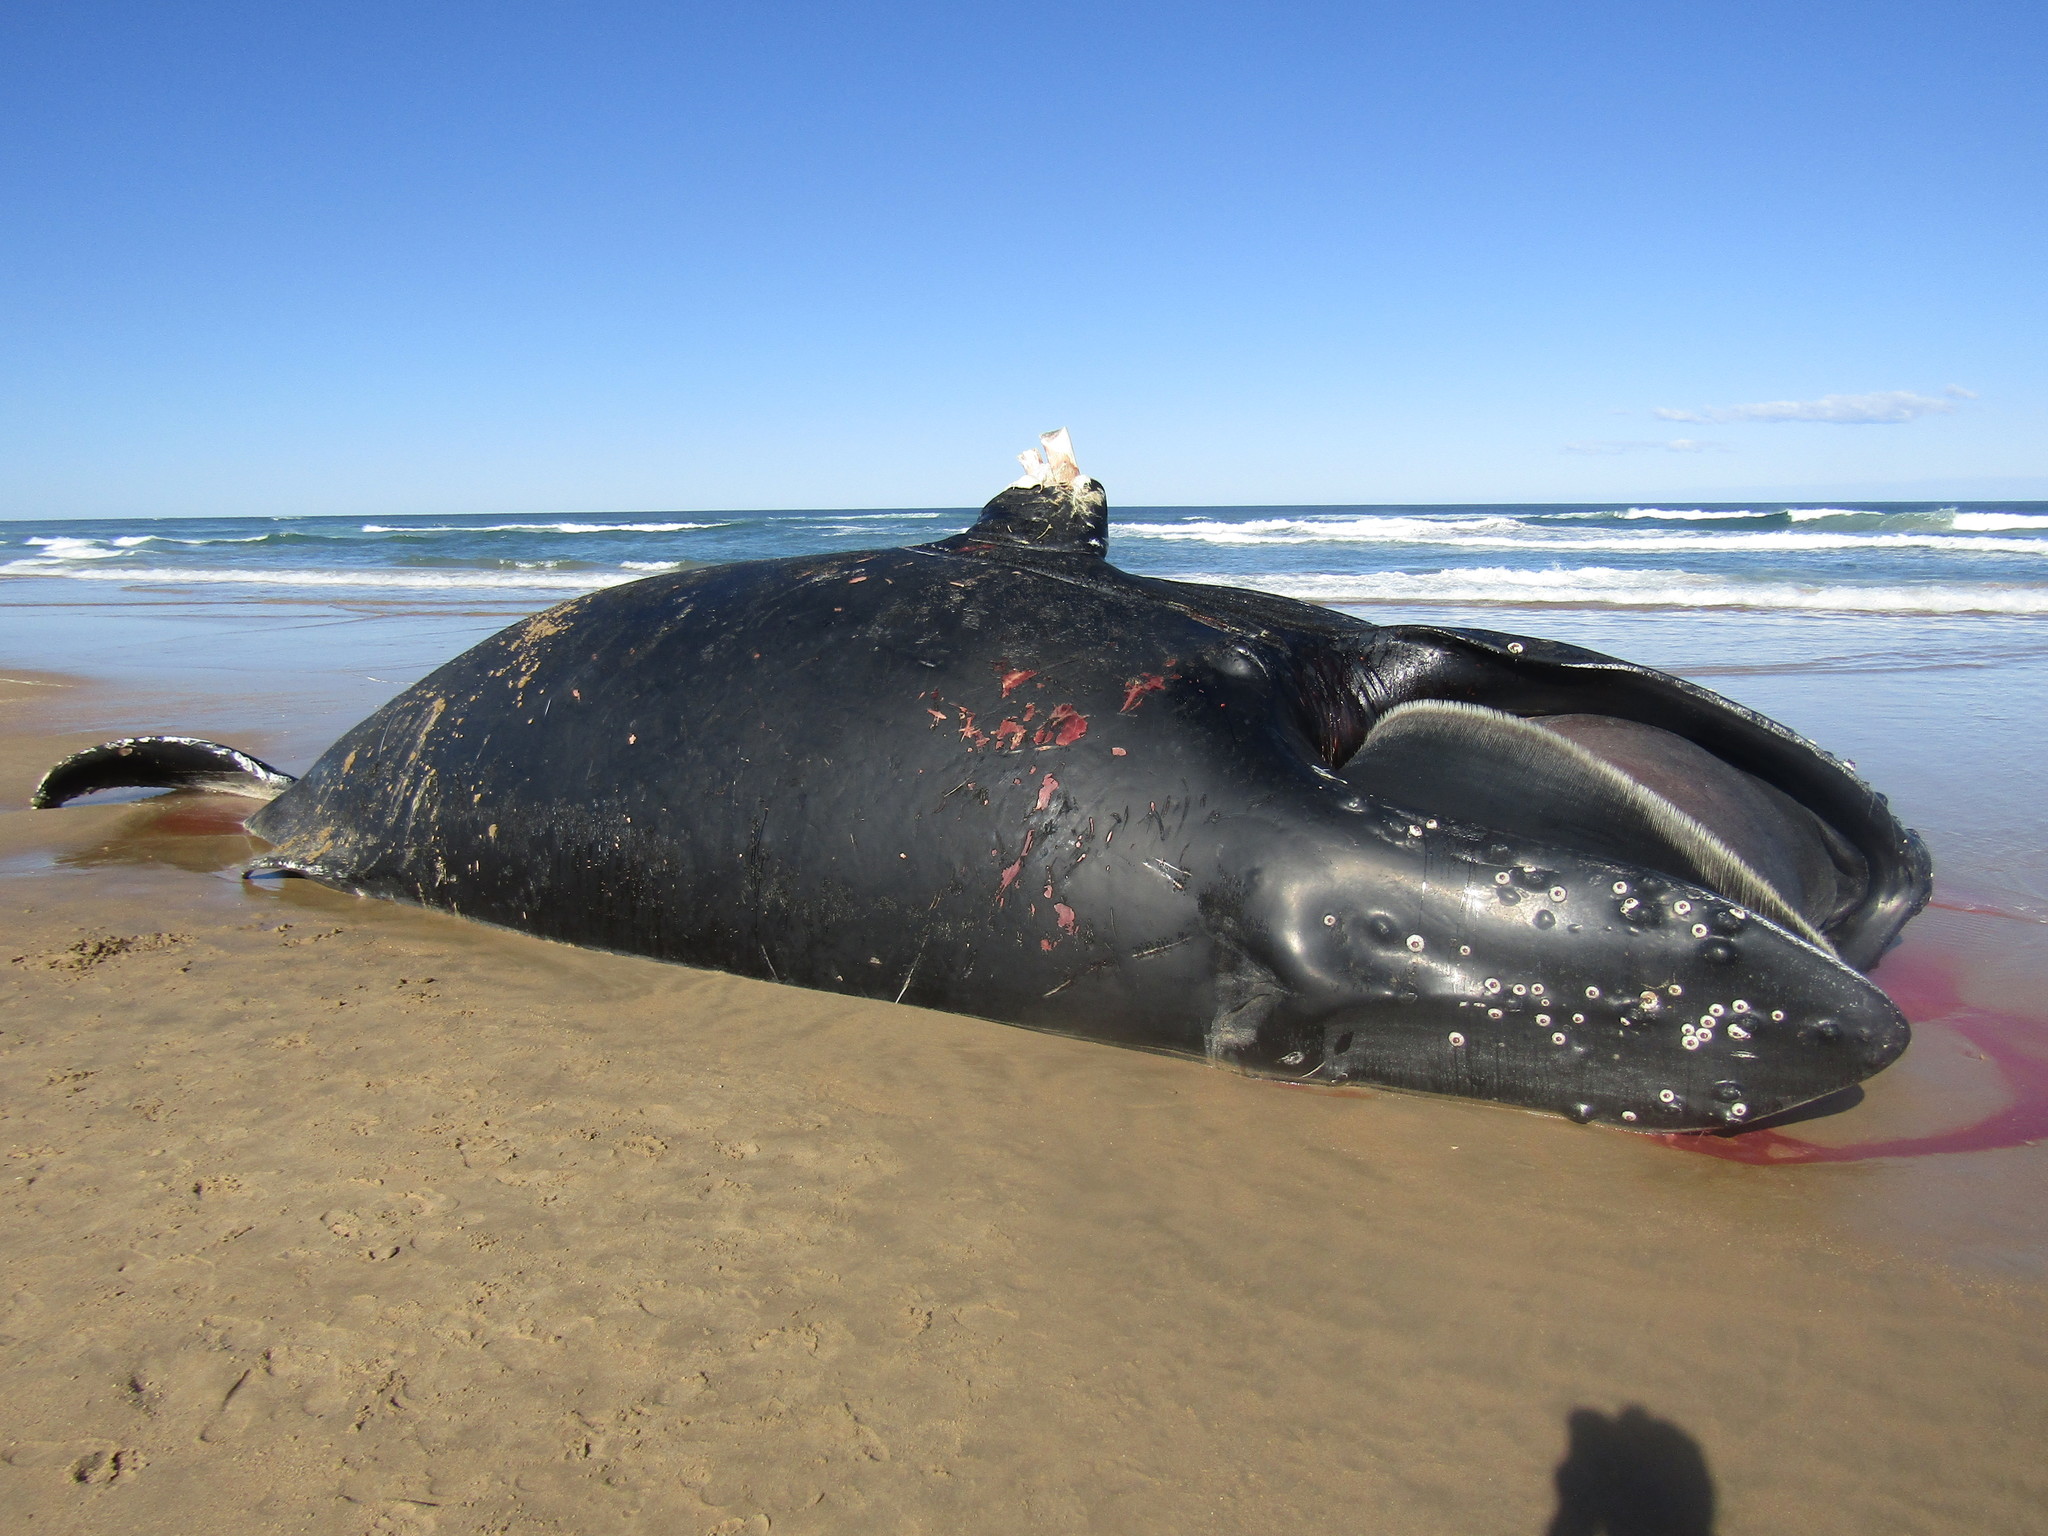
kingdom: Animalia
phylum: Chordata
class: Mammalia
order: Cetacea
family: Balaenopteridae
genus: Megaptera
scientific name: Megaptera novaeangliae
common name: Humpback whale
